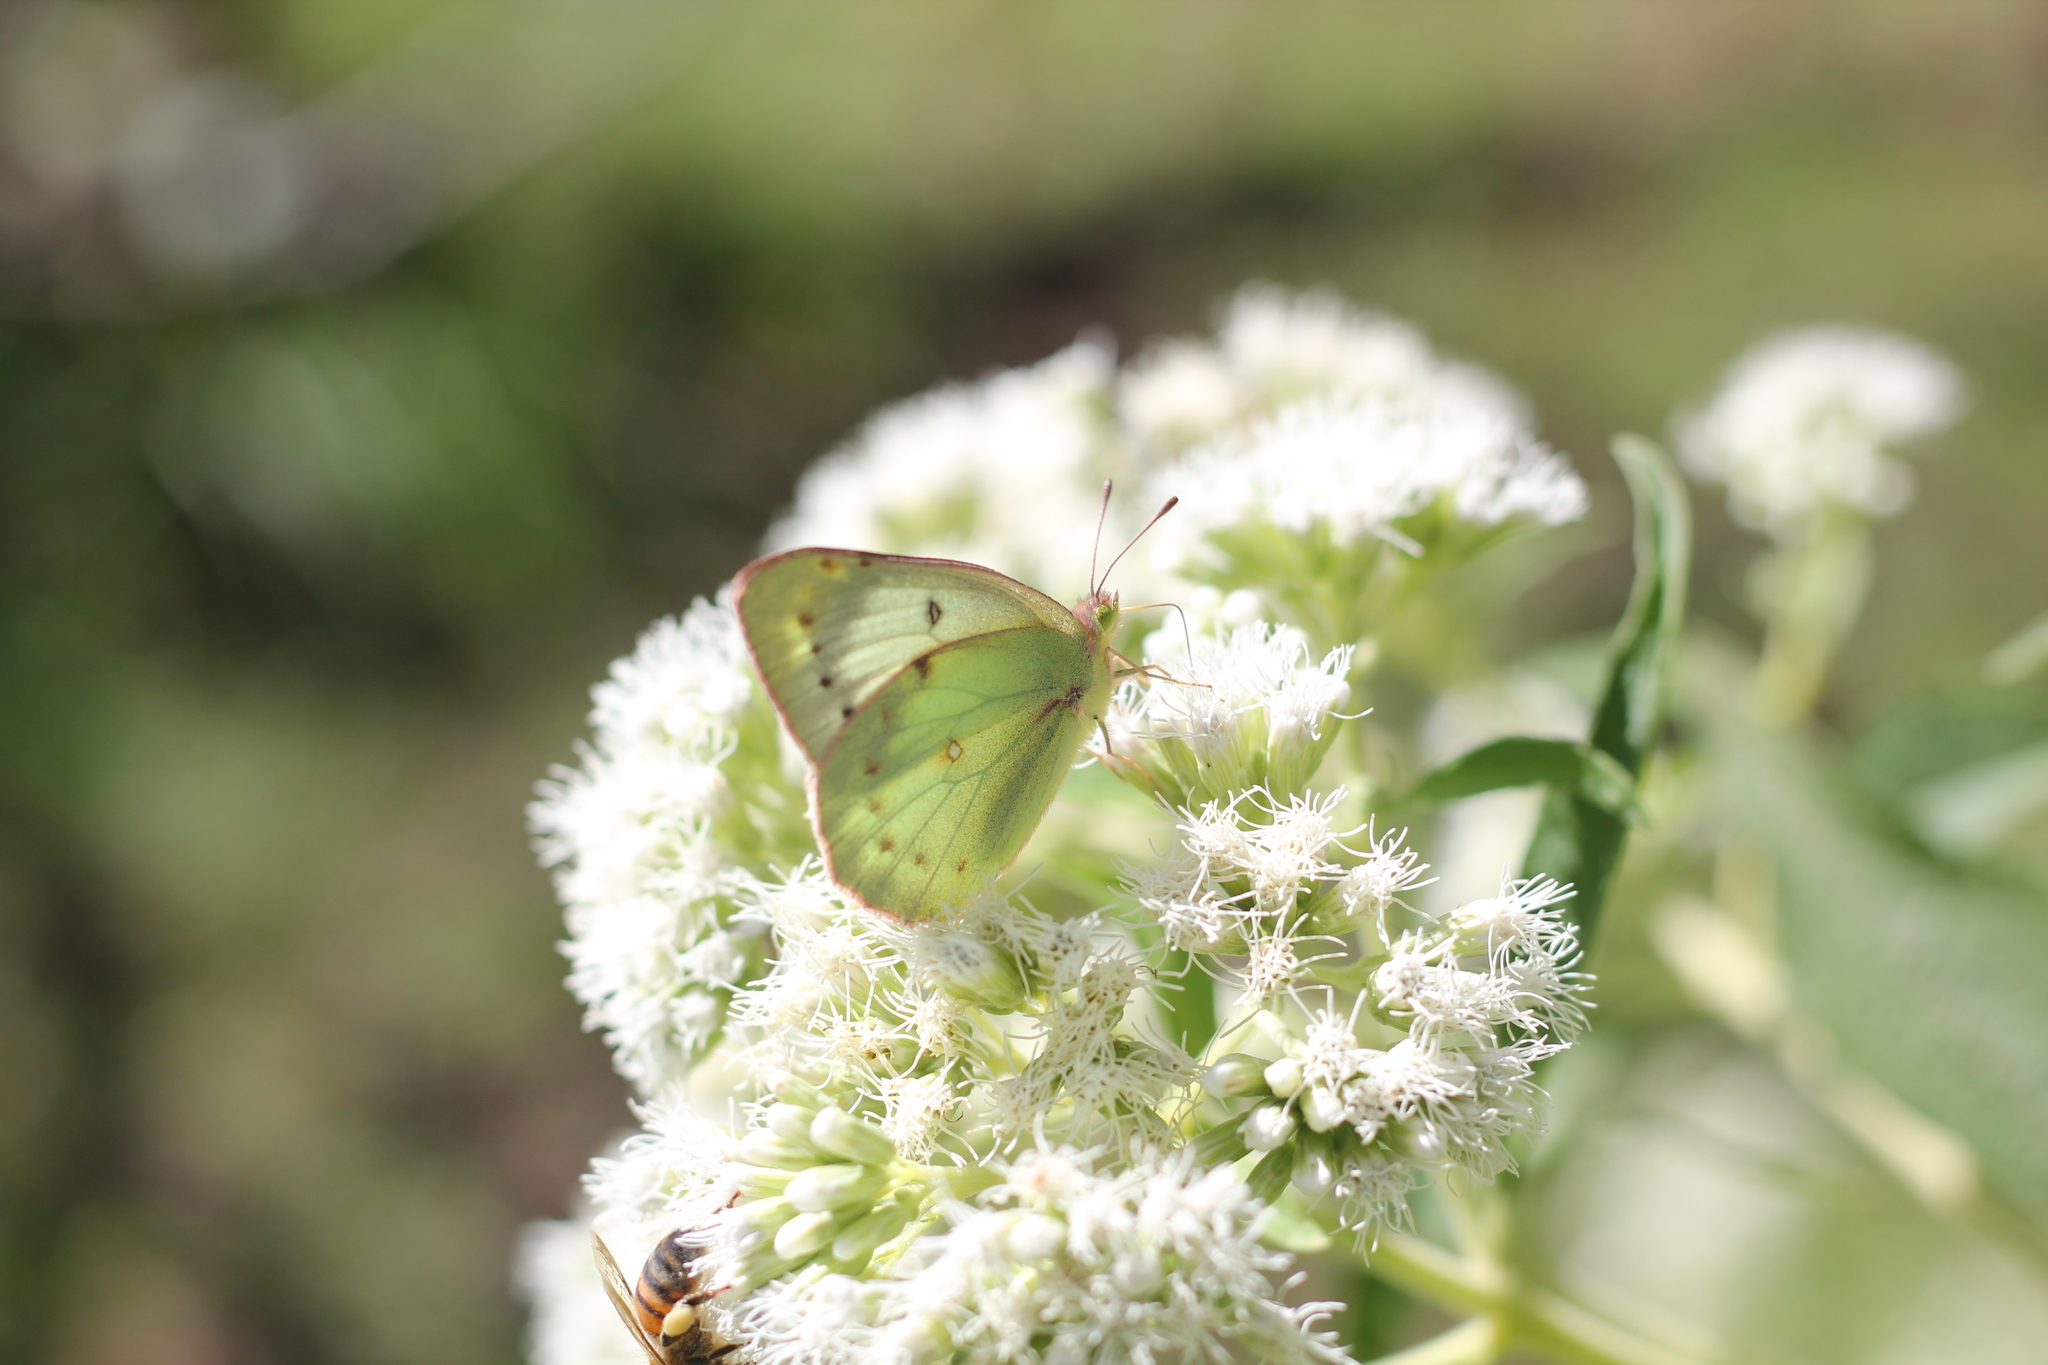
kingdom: Animalia
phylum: Arthropoda
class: Insecta
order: Lepidoptera
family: Pieridae
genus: Colias
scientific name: Colias lesbia
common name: Lesbia clouded yellow
